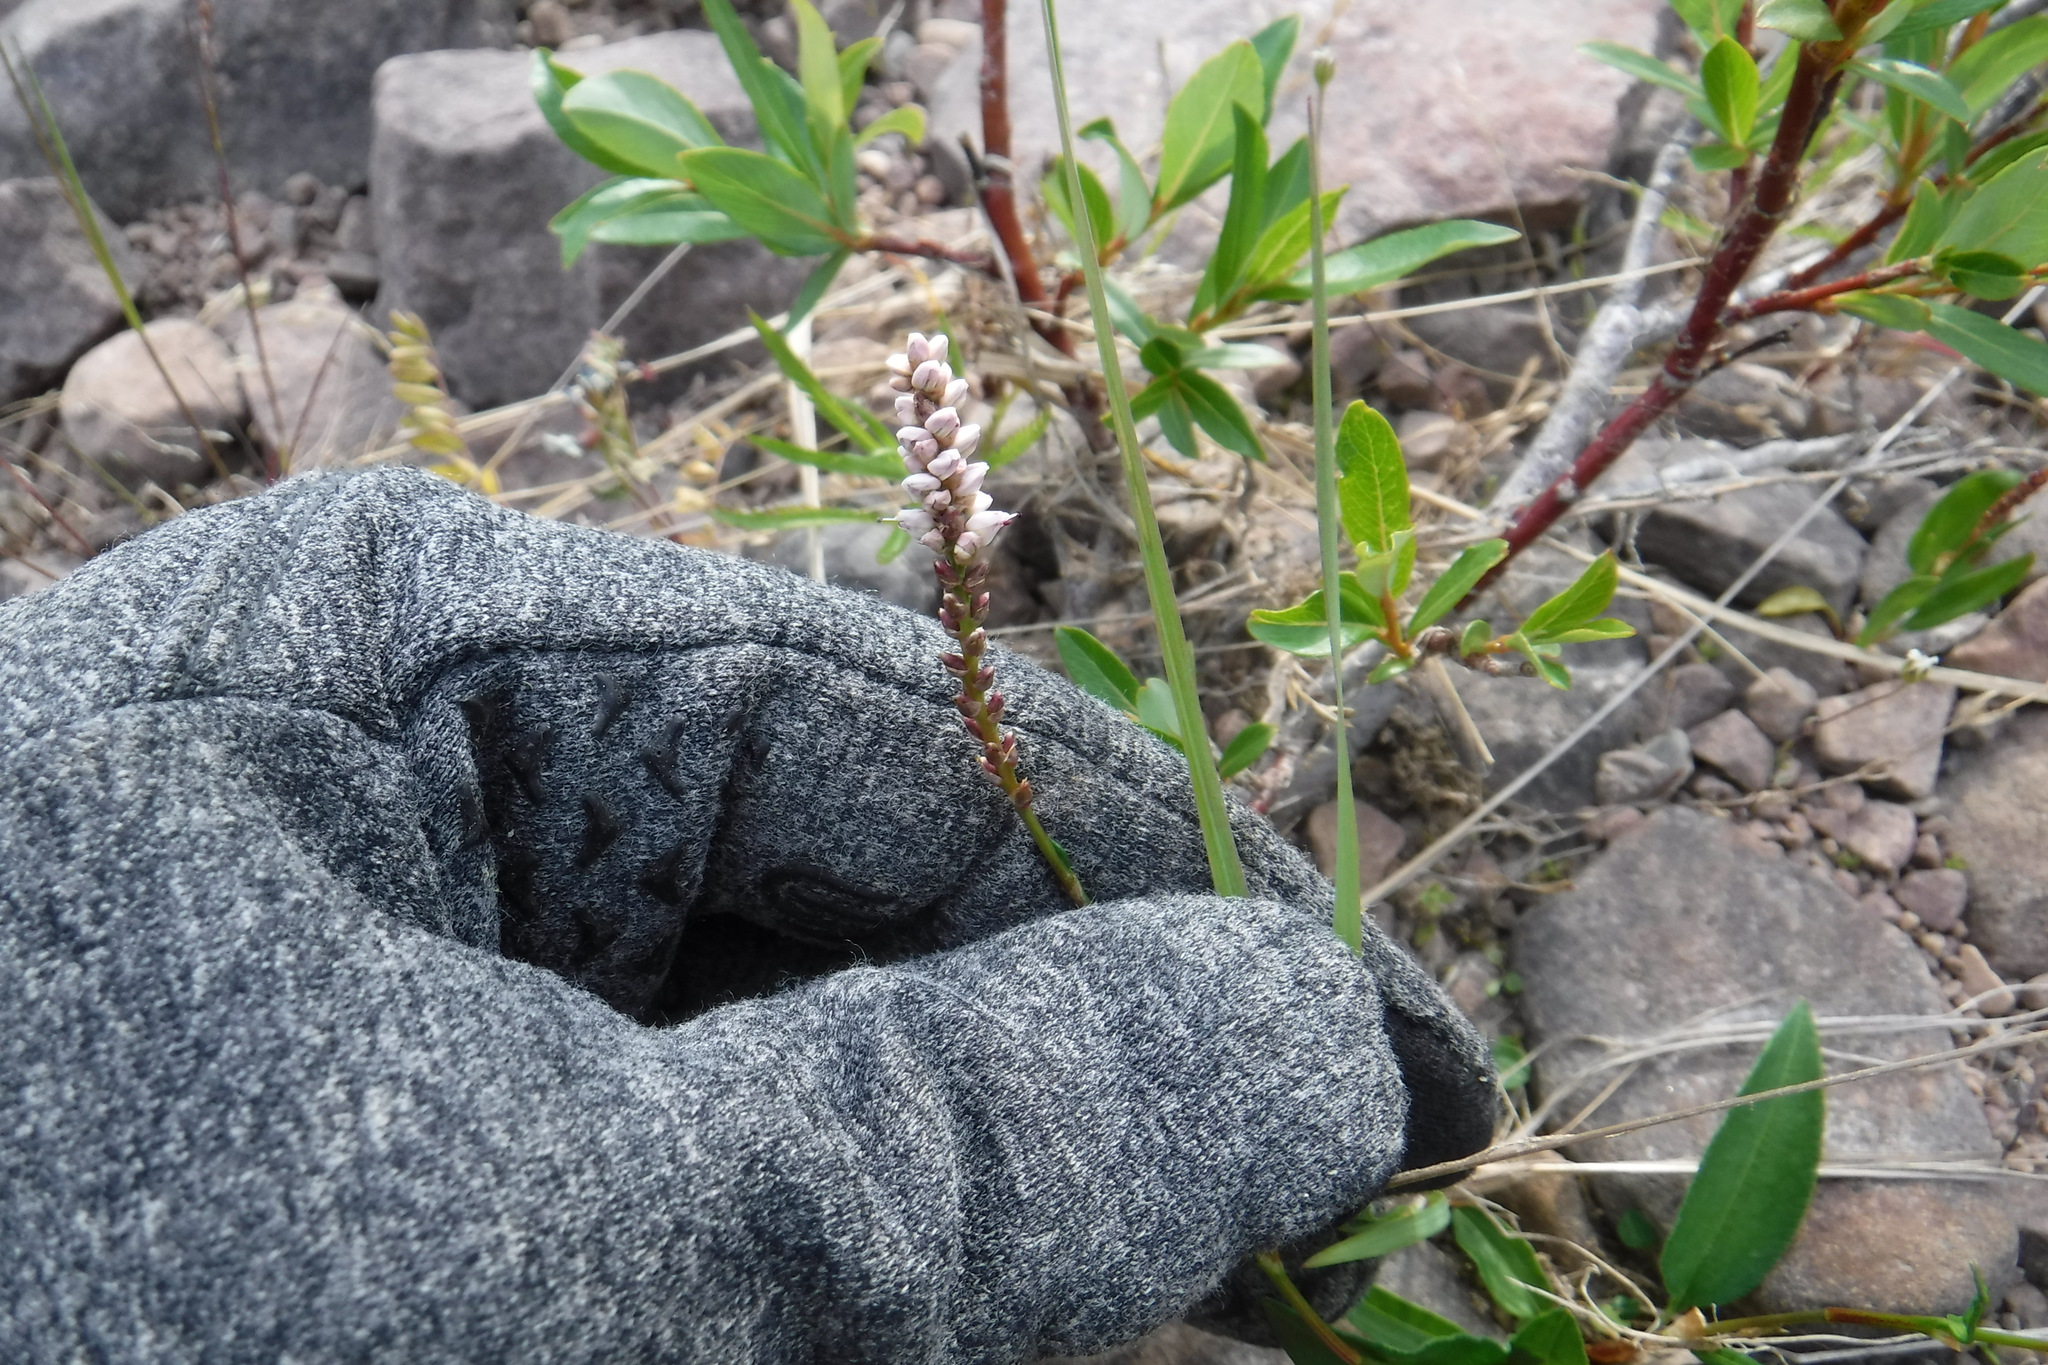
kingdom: Plantae
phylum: Tracheophyta
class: Magnoliopsida
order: Caryophyllales
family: Polygonaceae
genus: Bistorta
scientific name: Bistorta vivipara
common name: Alpine bistort
